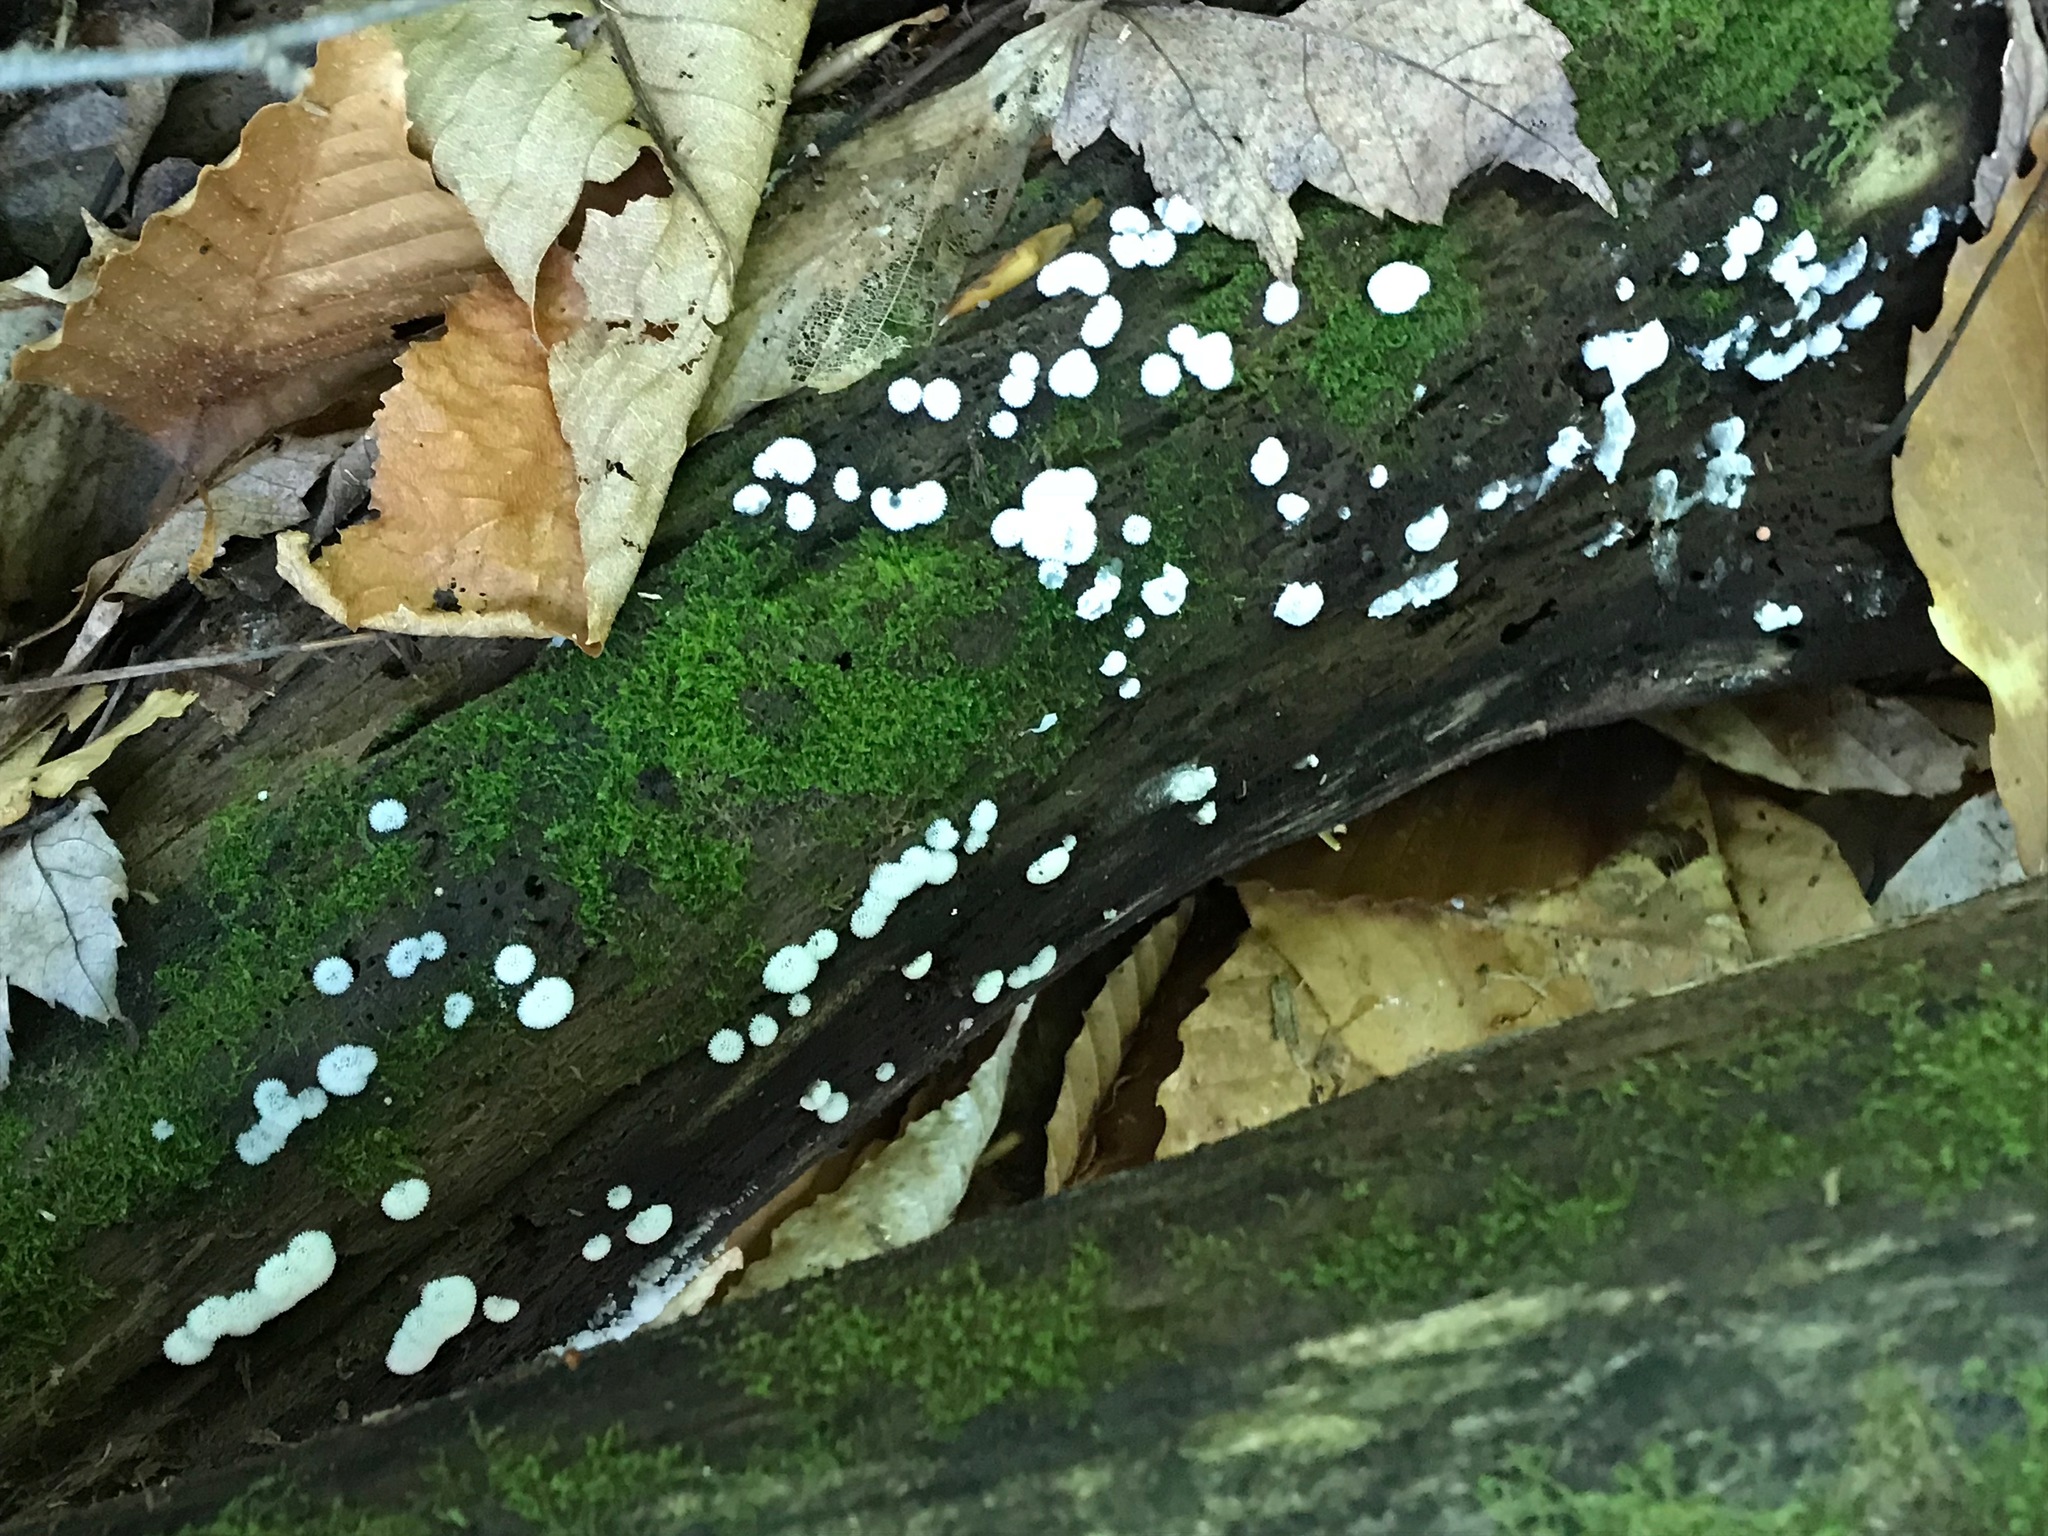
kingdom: Protozoa
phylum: Mycetozoa
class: Protosteliomycetes
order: Ceratiomyxales
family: Ceratiomyxaceae
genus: Ceratiomyxa
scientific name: Ceratiomyxa fruticulosa
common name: Honeycomb coral slime mold
